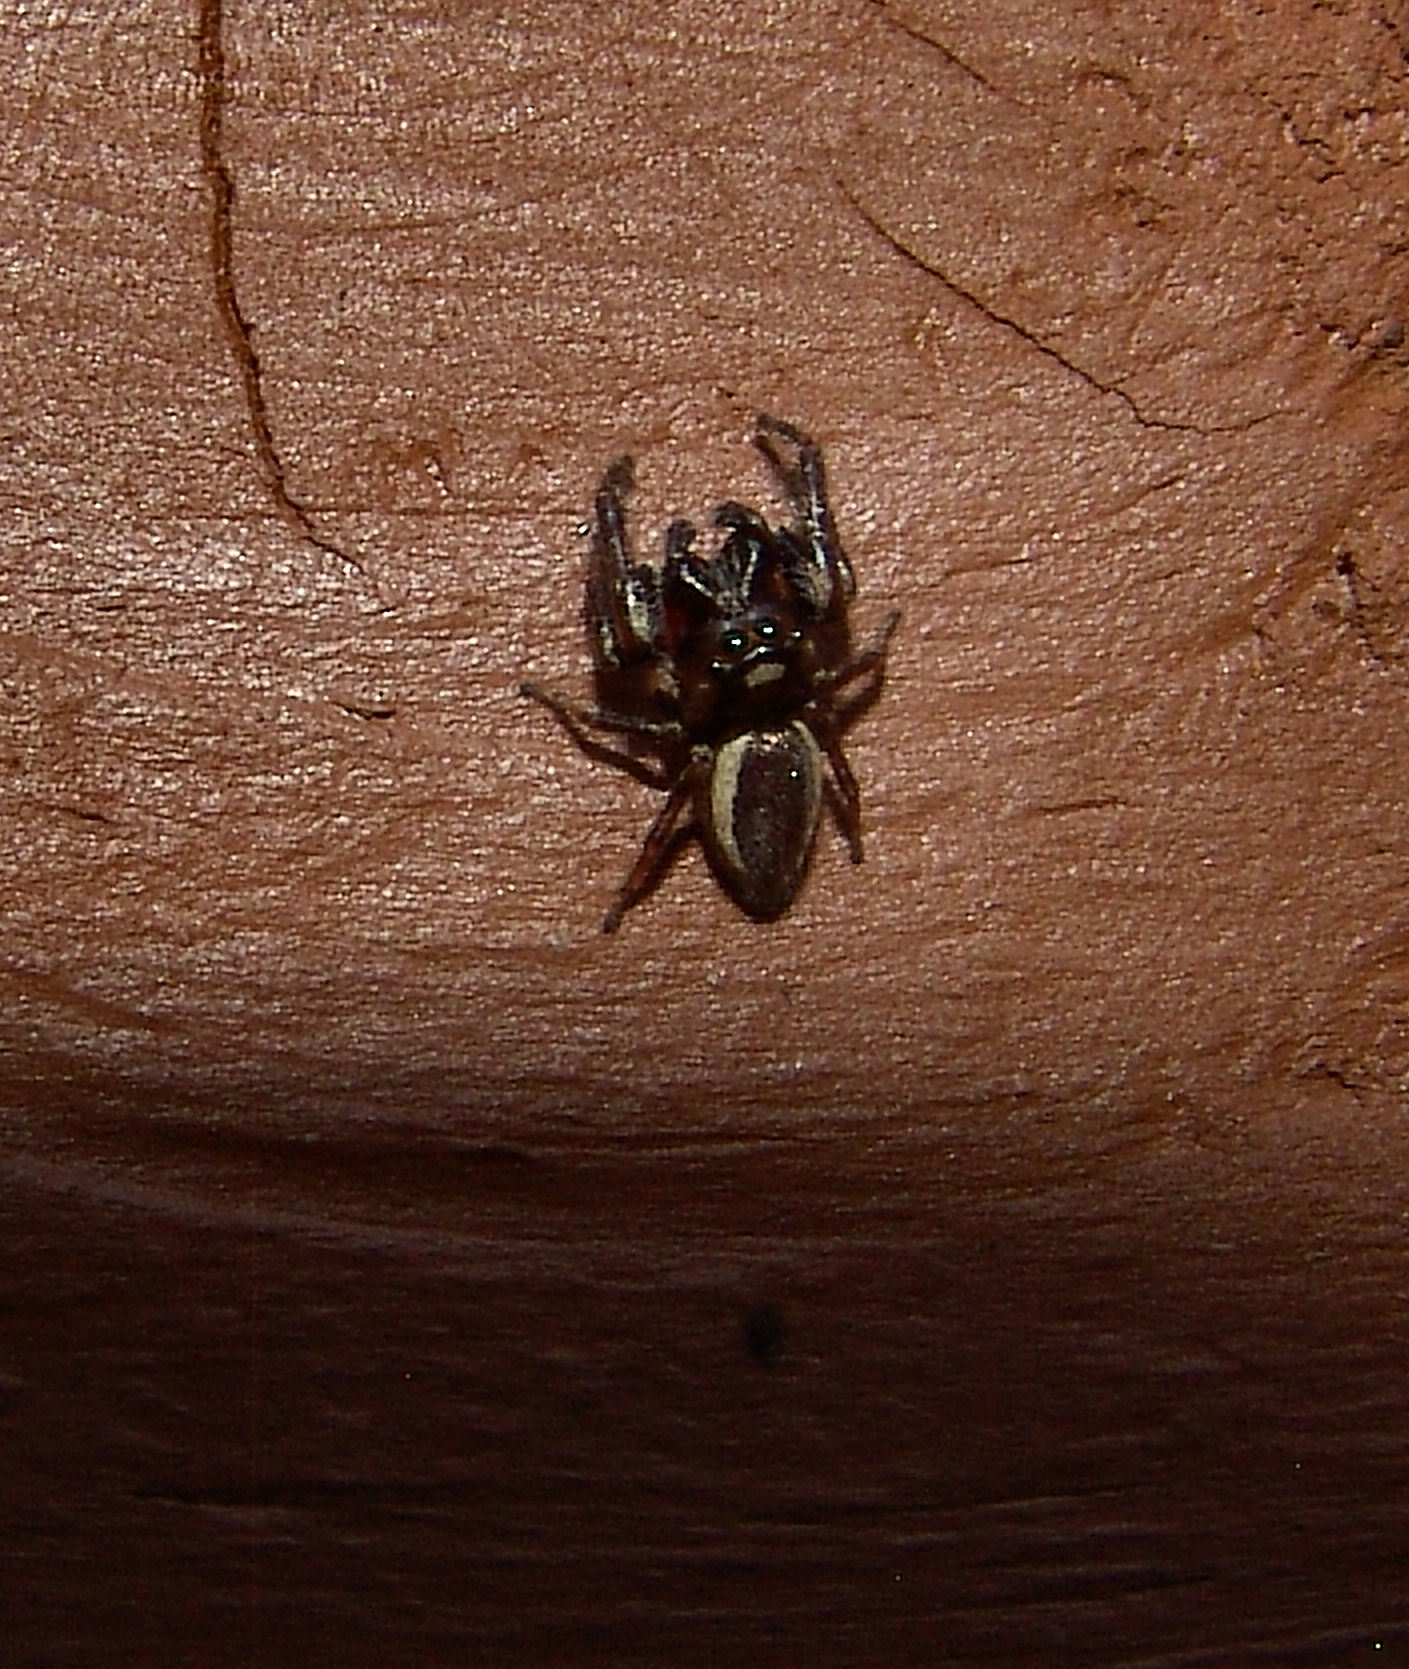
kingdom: Animalia
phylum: Arthropoda
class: Arachnida
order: Araneae
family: Salticidae
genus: Eris
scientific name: Eris militaris
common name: Bronze jumper
